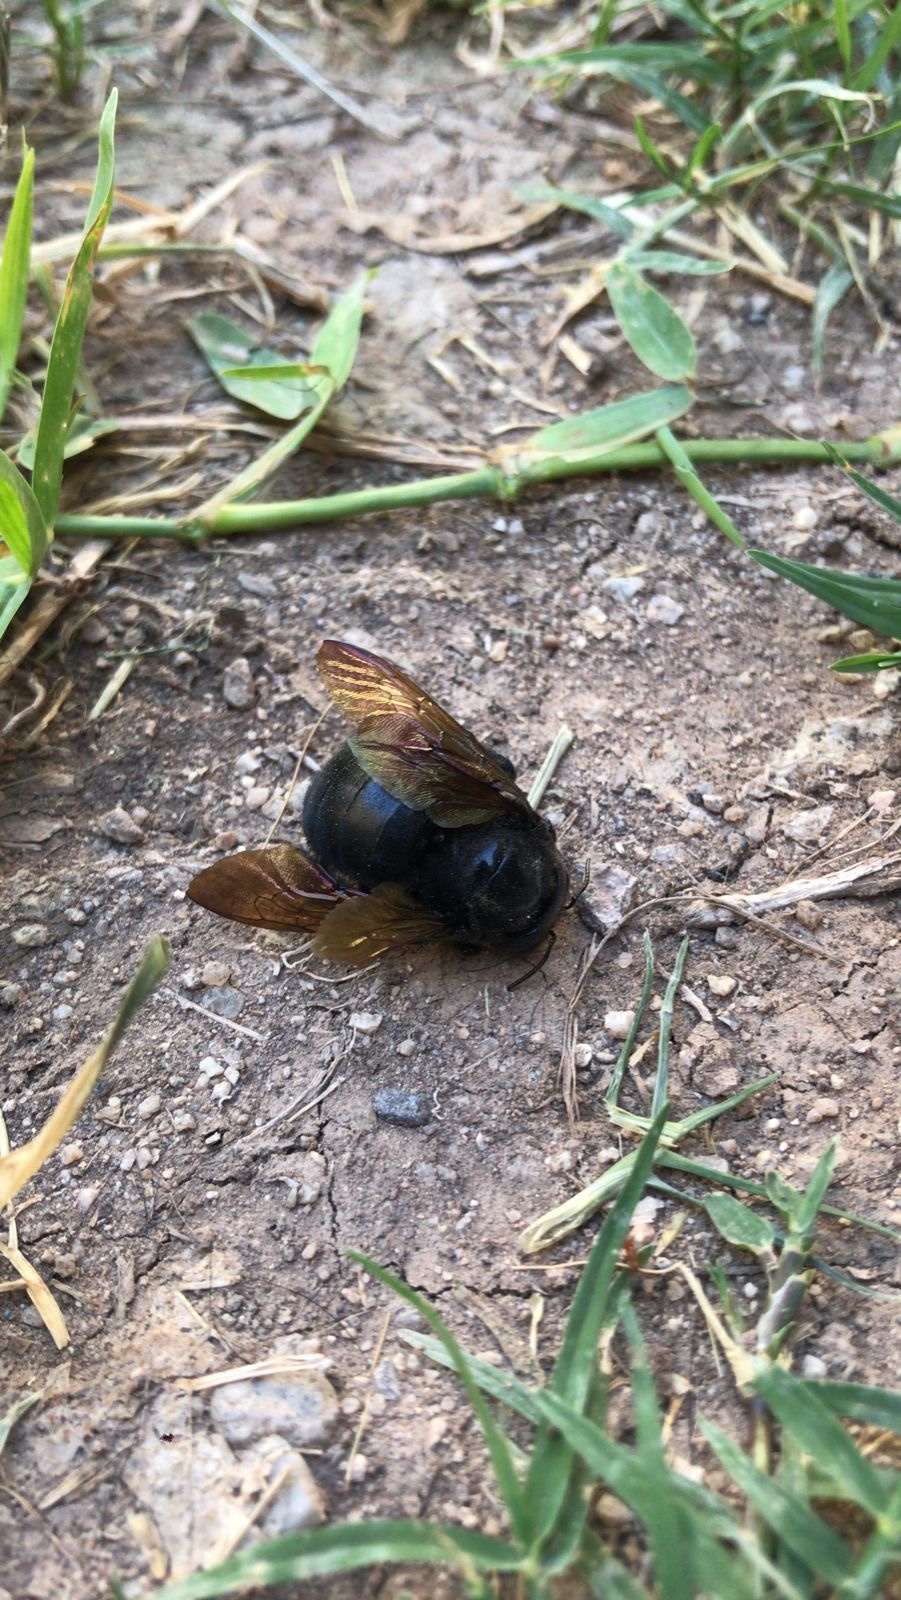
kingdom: Animalia
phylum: Arthropoda
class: Insecta
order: Hymenoptera
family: Apidae
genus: Xylocopa
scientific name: Xylocopa sonorina
